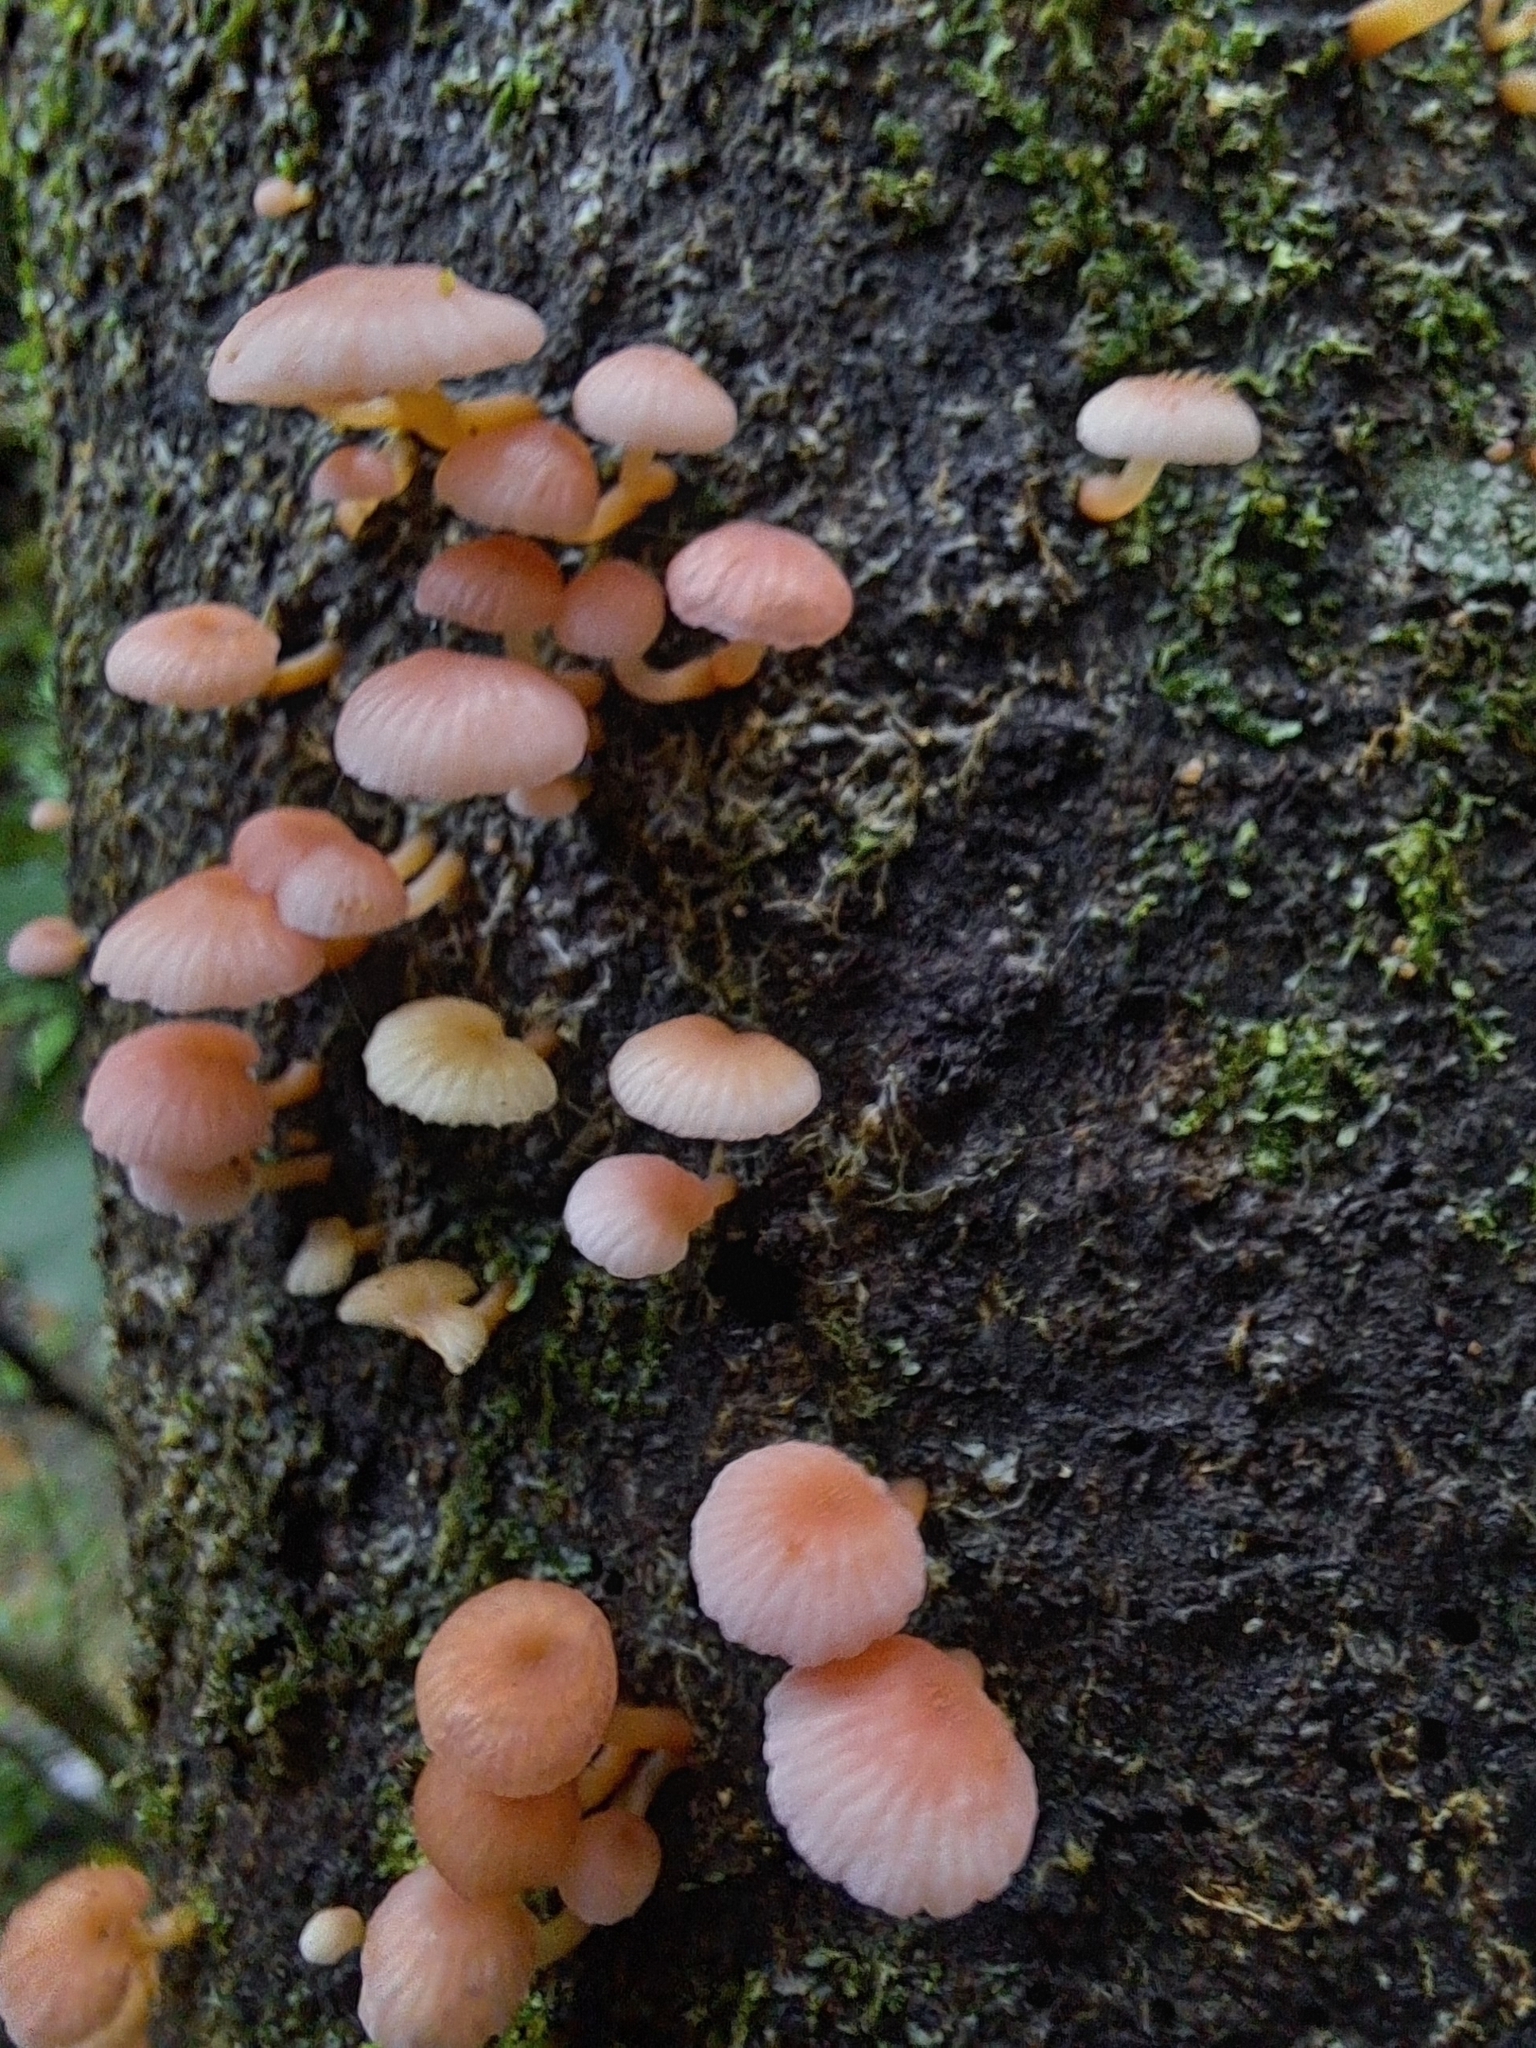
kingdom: Fungi
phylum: Basidiomycota
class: Agaricomycetes
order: Agaricales
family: Mycenaceae
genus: Mycena
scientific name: Mycena roseoflava
